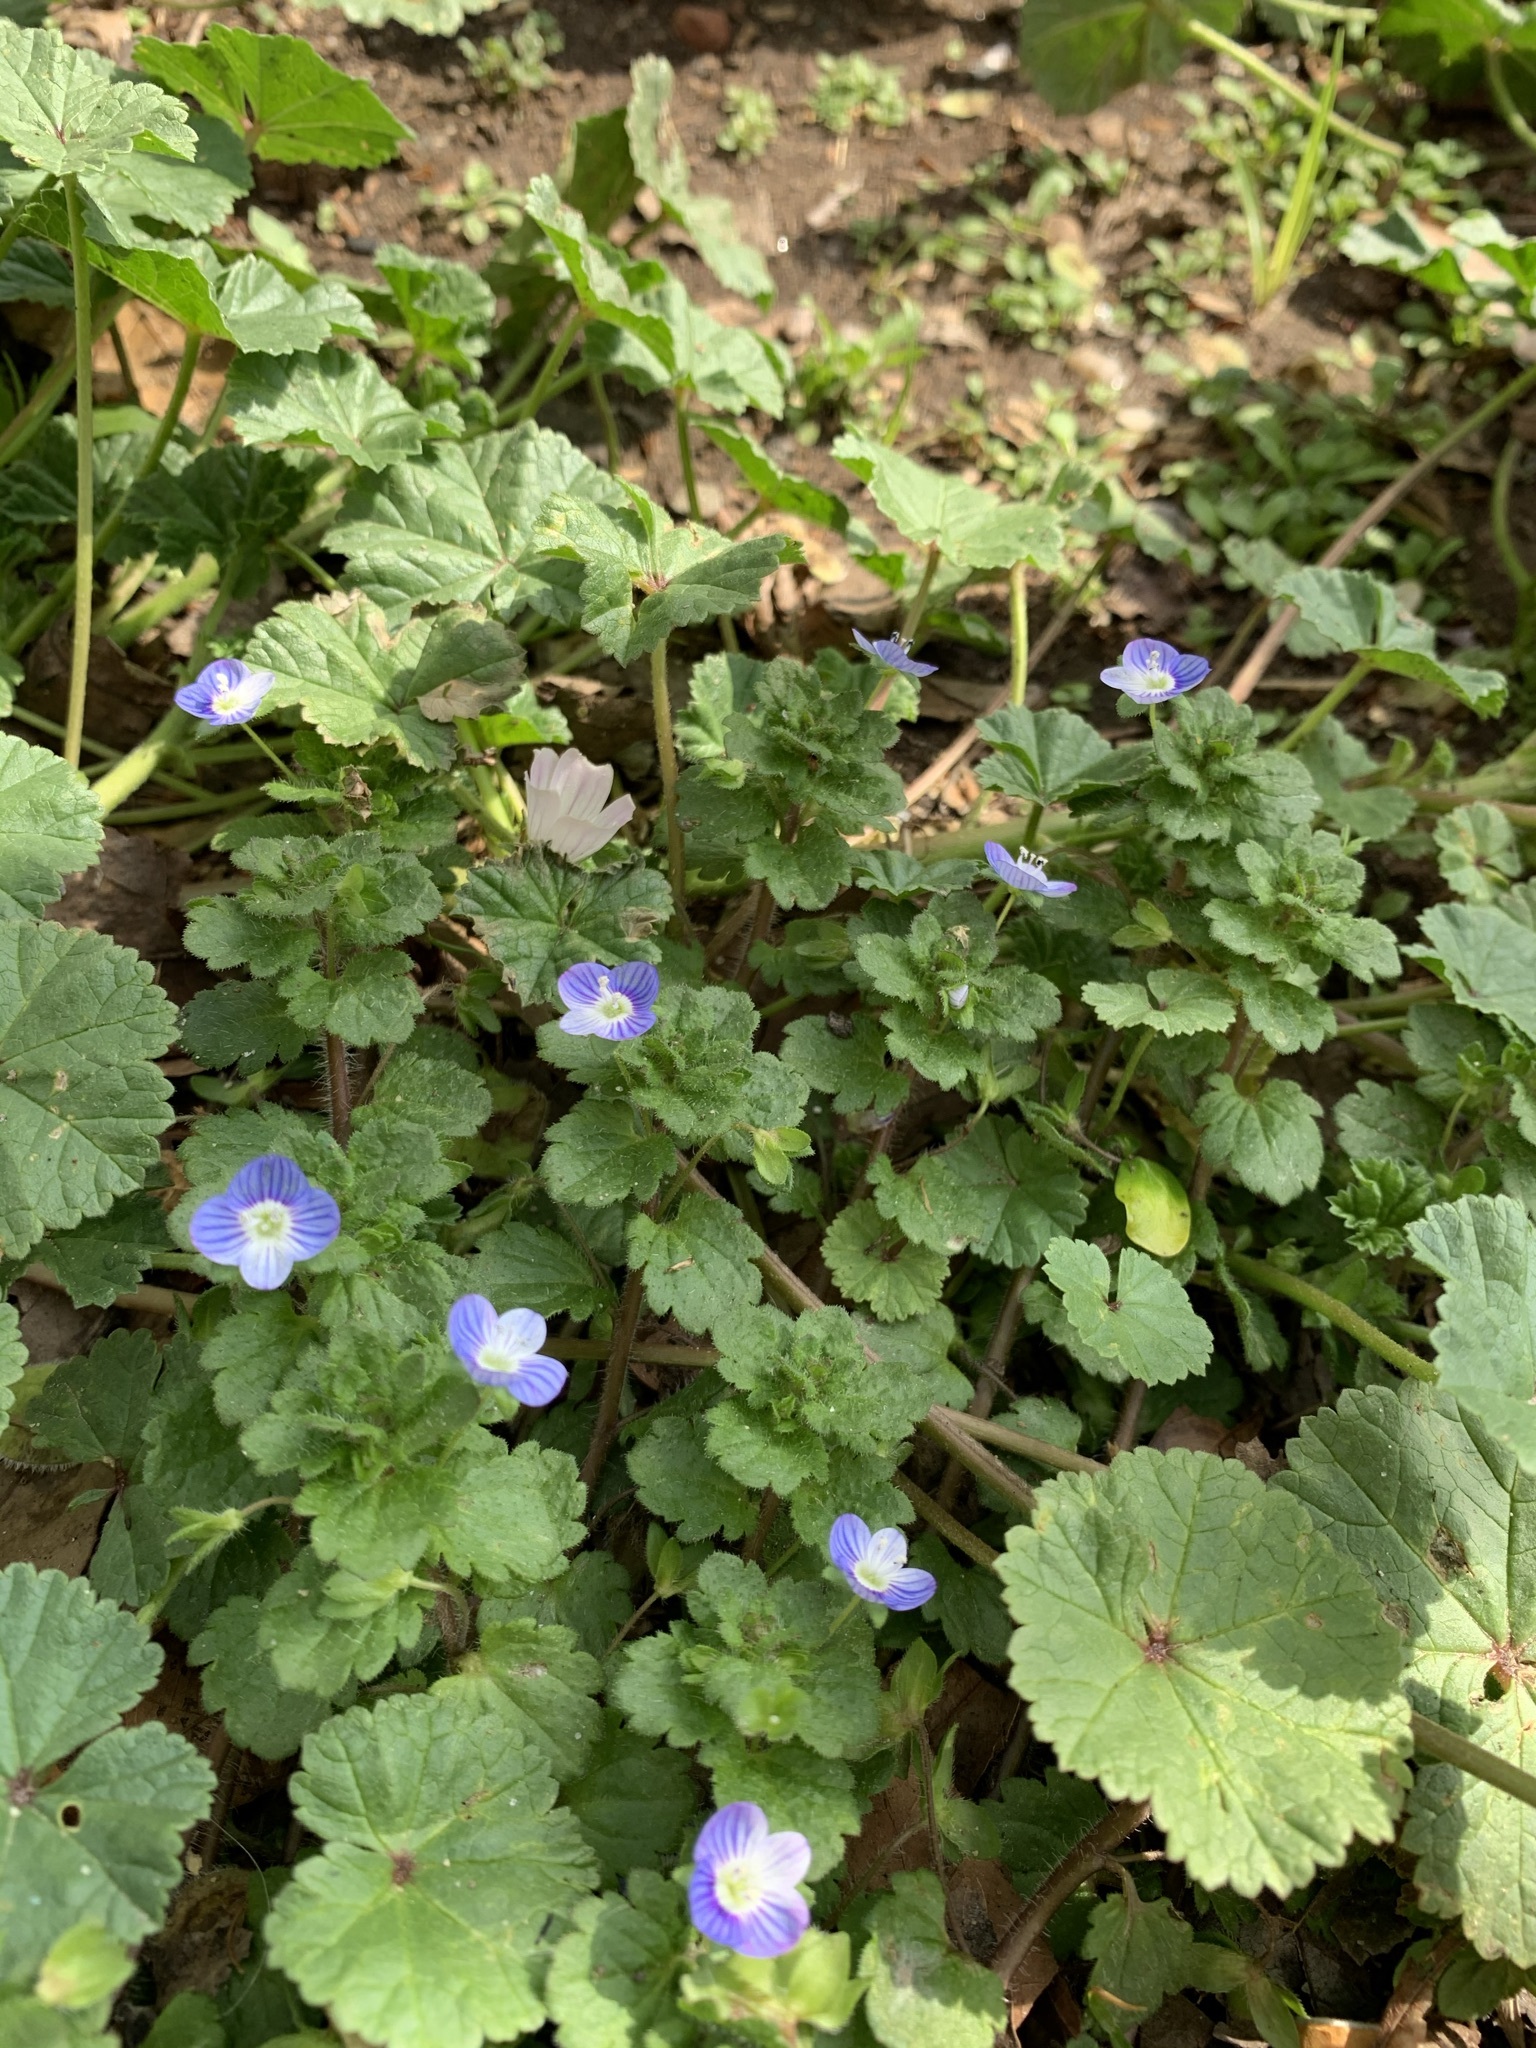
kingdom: Plantae
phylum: Tracheophyta
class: Magnoliopsida
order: Lamiales
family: Plantaginaceae
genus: Veronica
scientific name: Veronica persica
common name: Common field-speedwell
